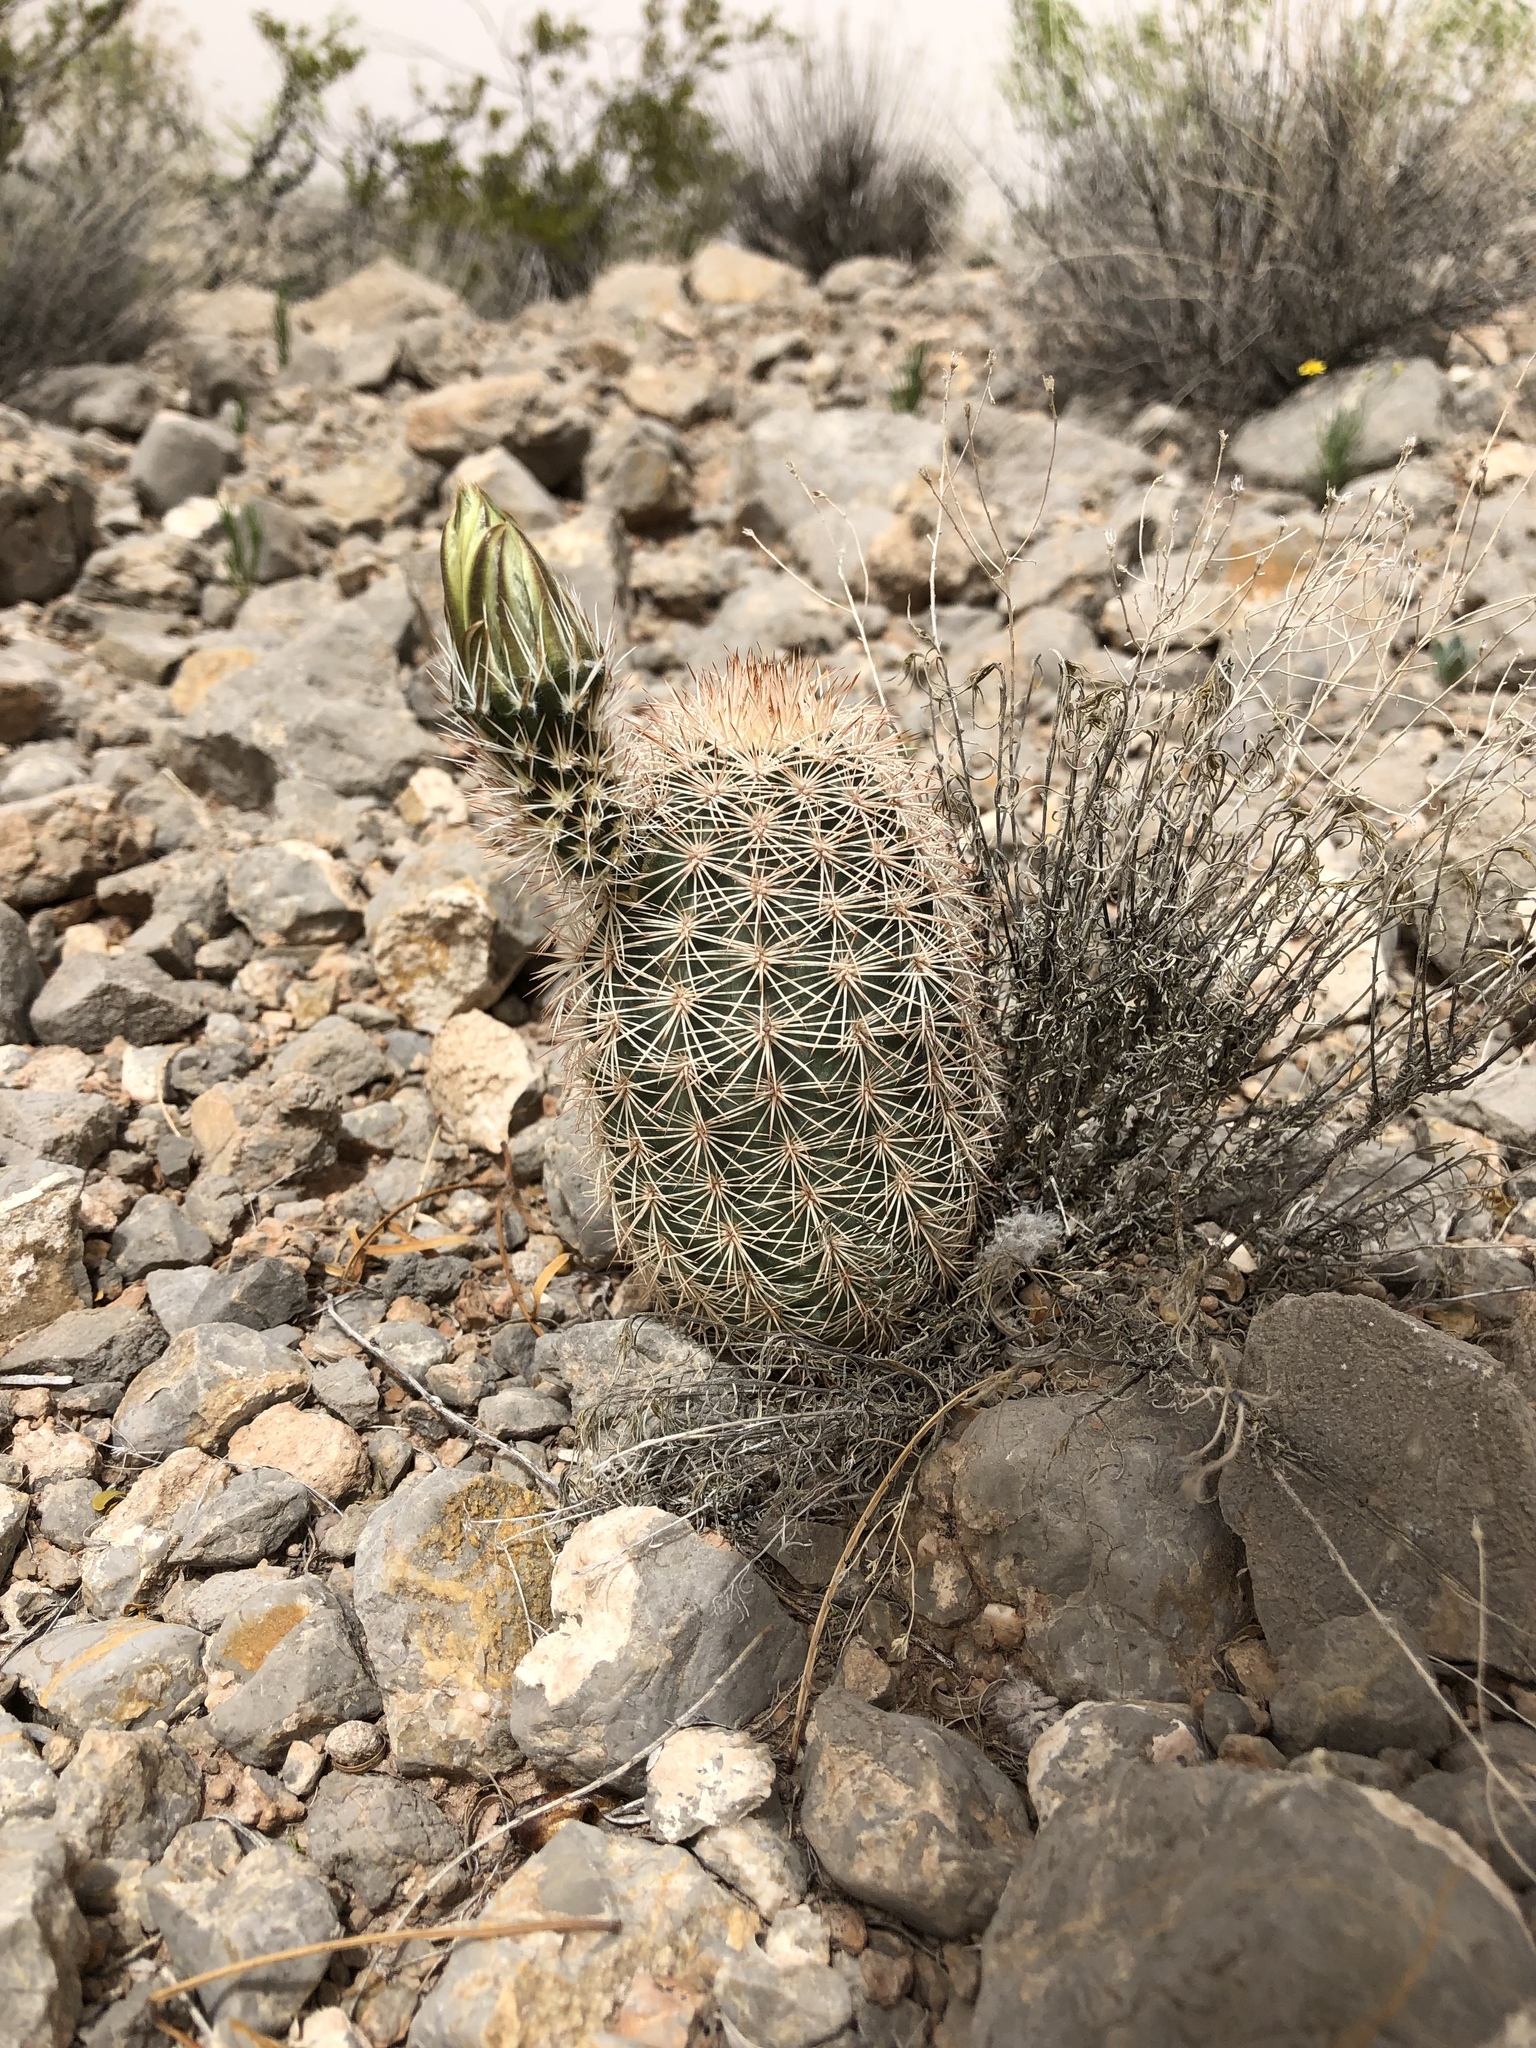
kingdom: Plantae
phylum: Tracheophyta
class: Magnoliopsida
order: Caryophyllales
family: Cactaceae
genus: Echinocereus
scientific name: Echinocereus dasyacanthus
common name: Spiny hedgehog cactus
